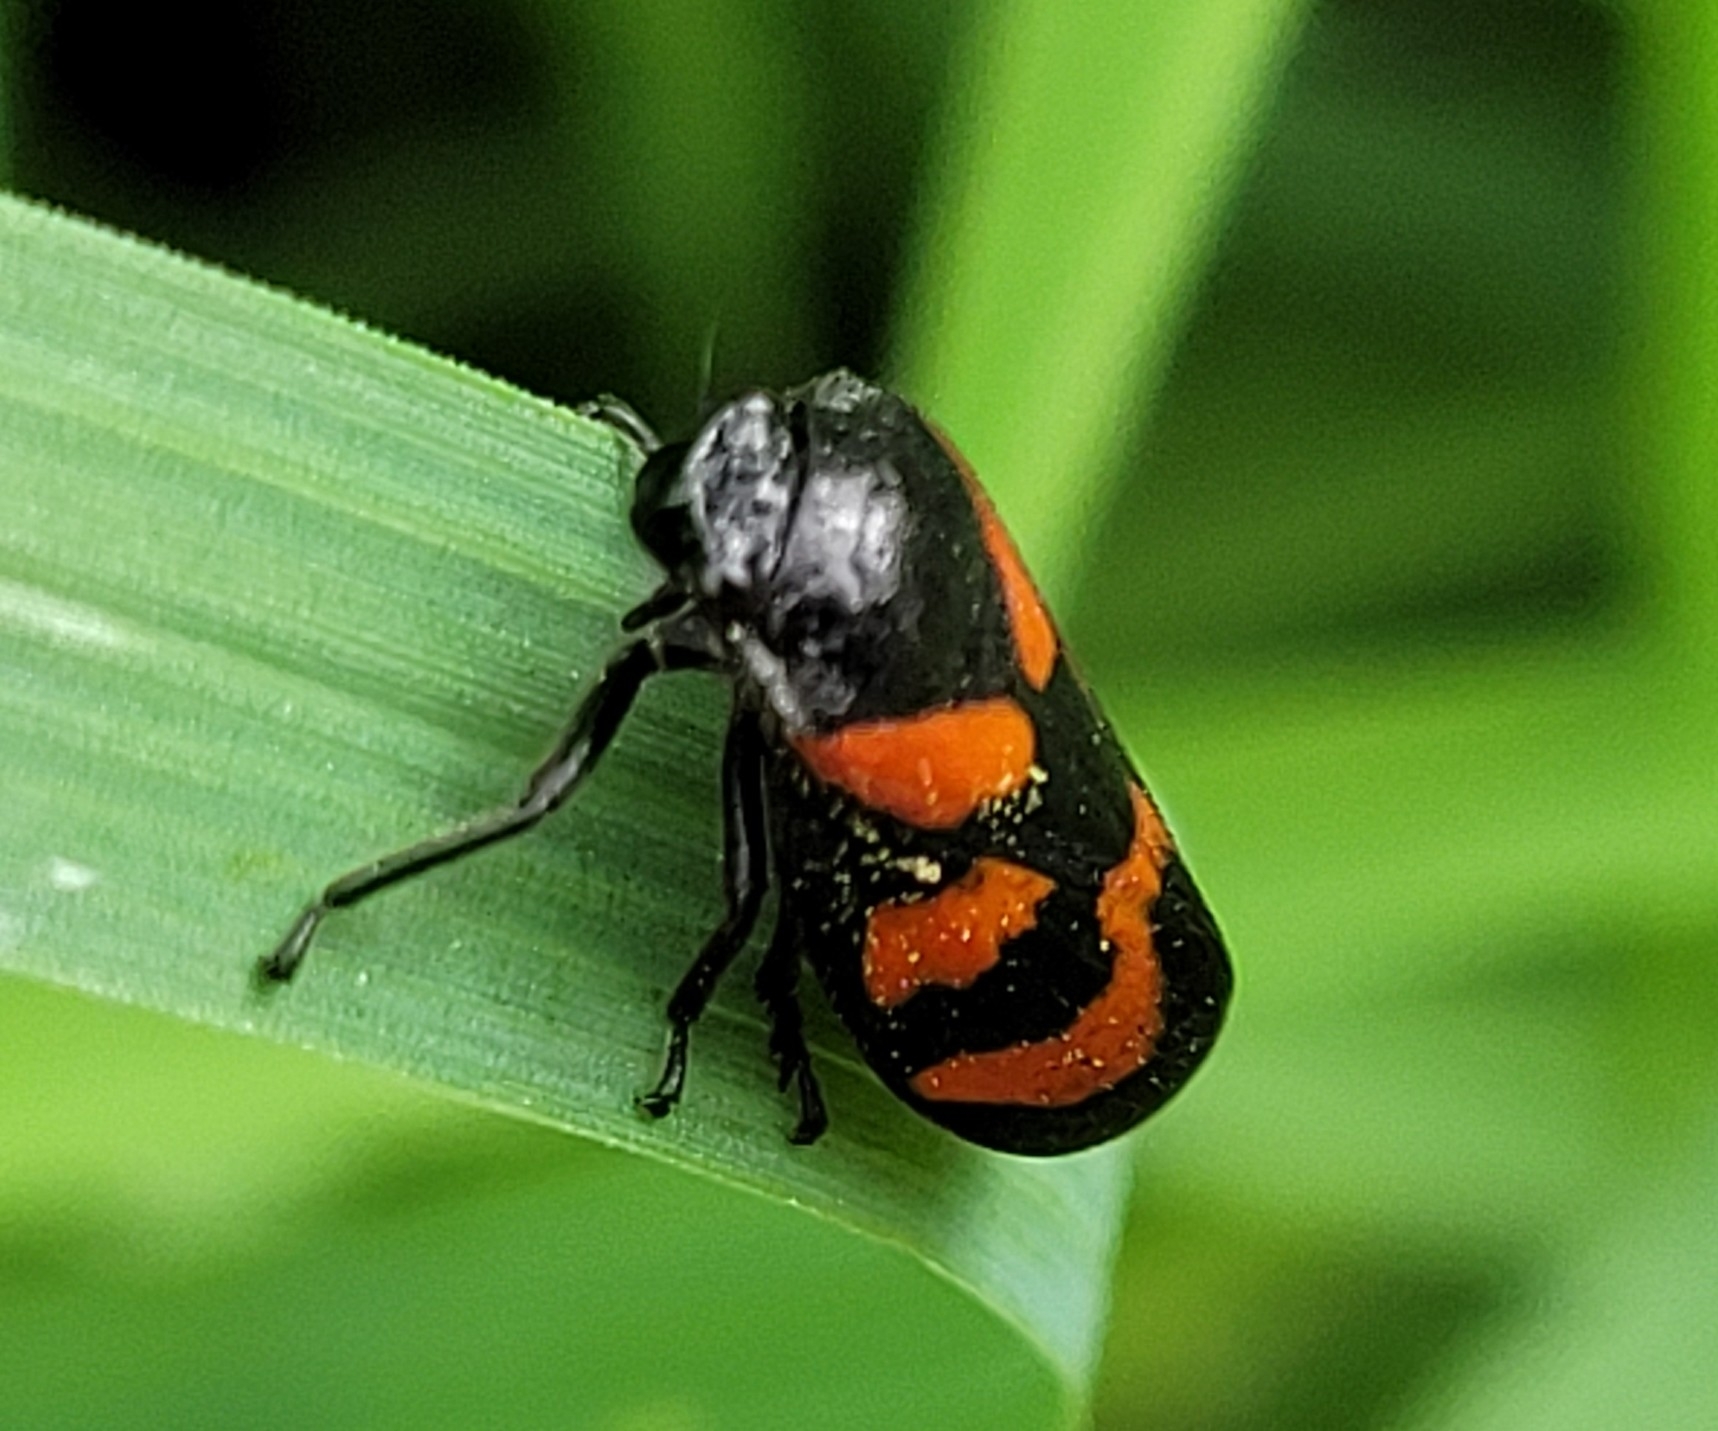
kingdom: Animalia
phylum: Arthropoda
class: Insecta
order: Hemiptera
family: Cercopidae
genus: Cercopis
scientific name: Cercopis vulnerata
